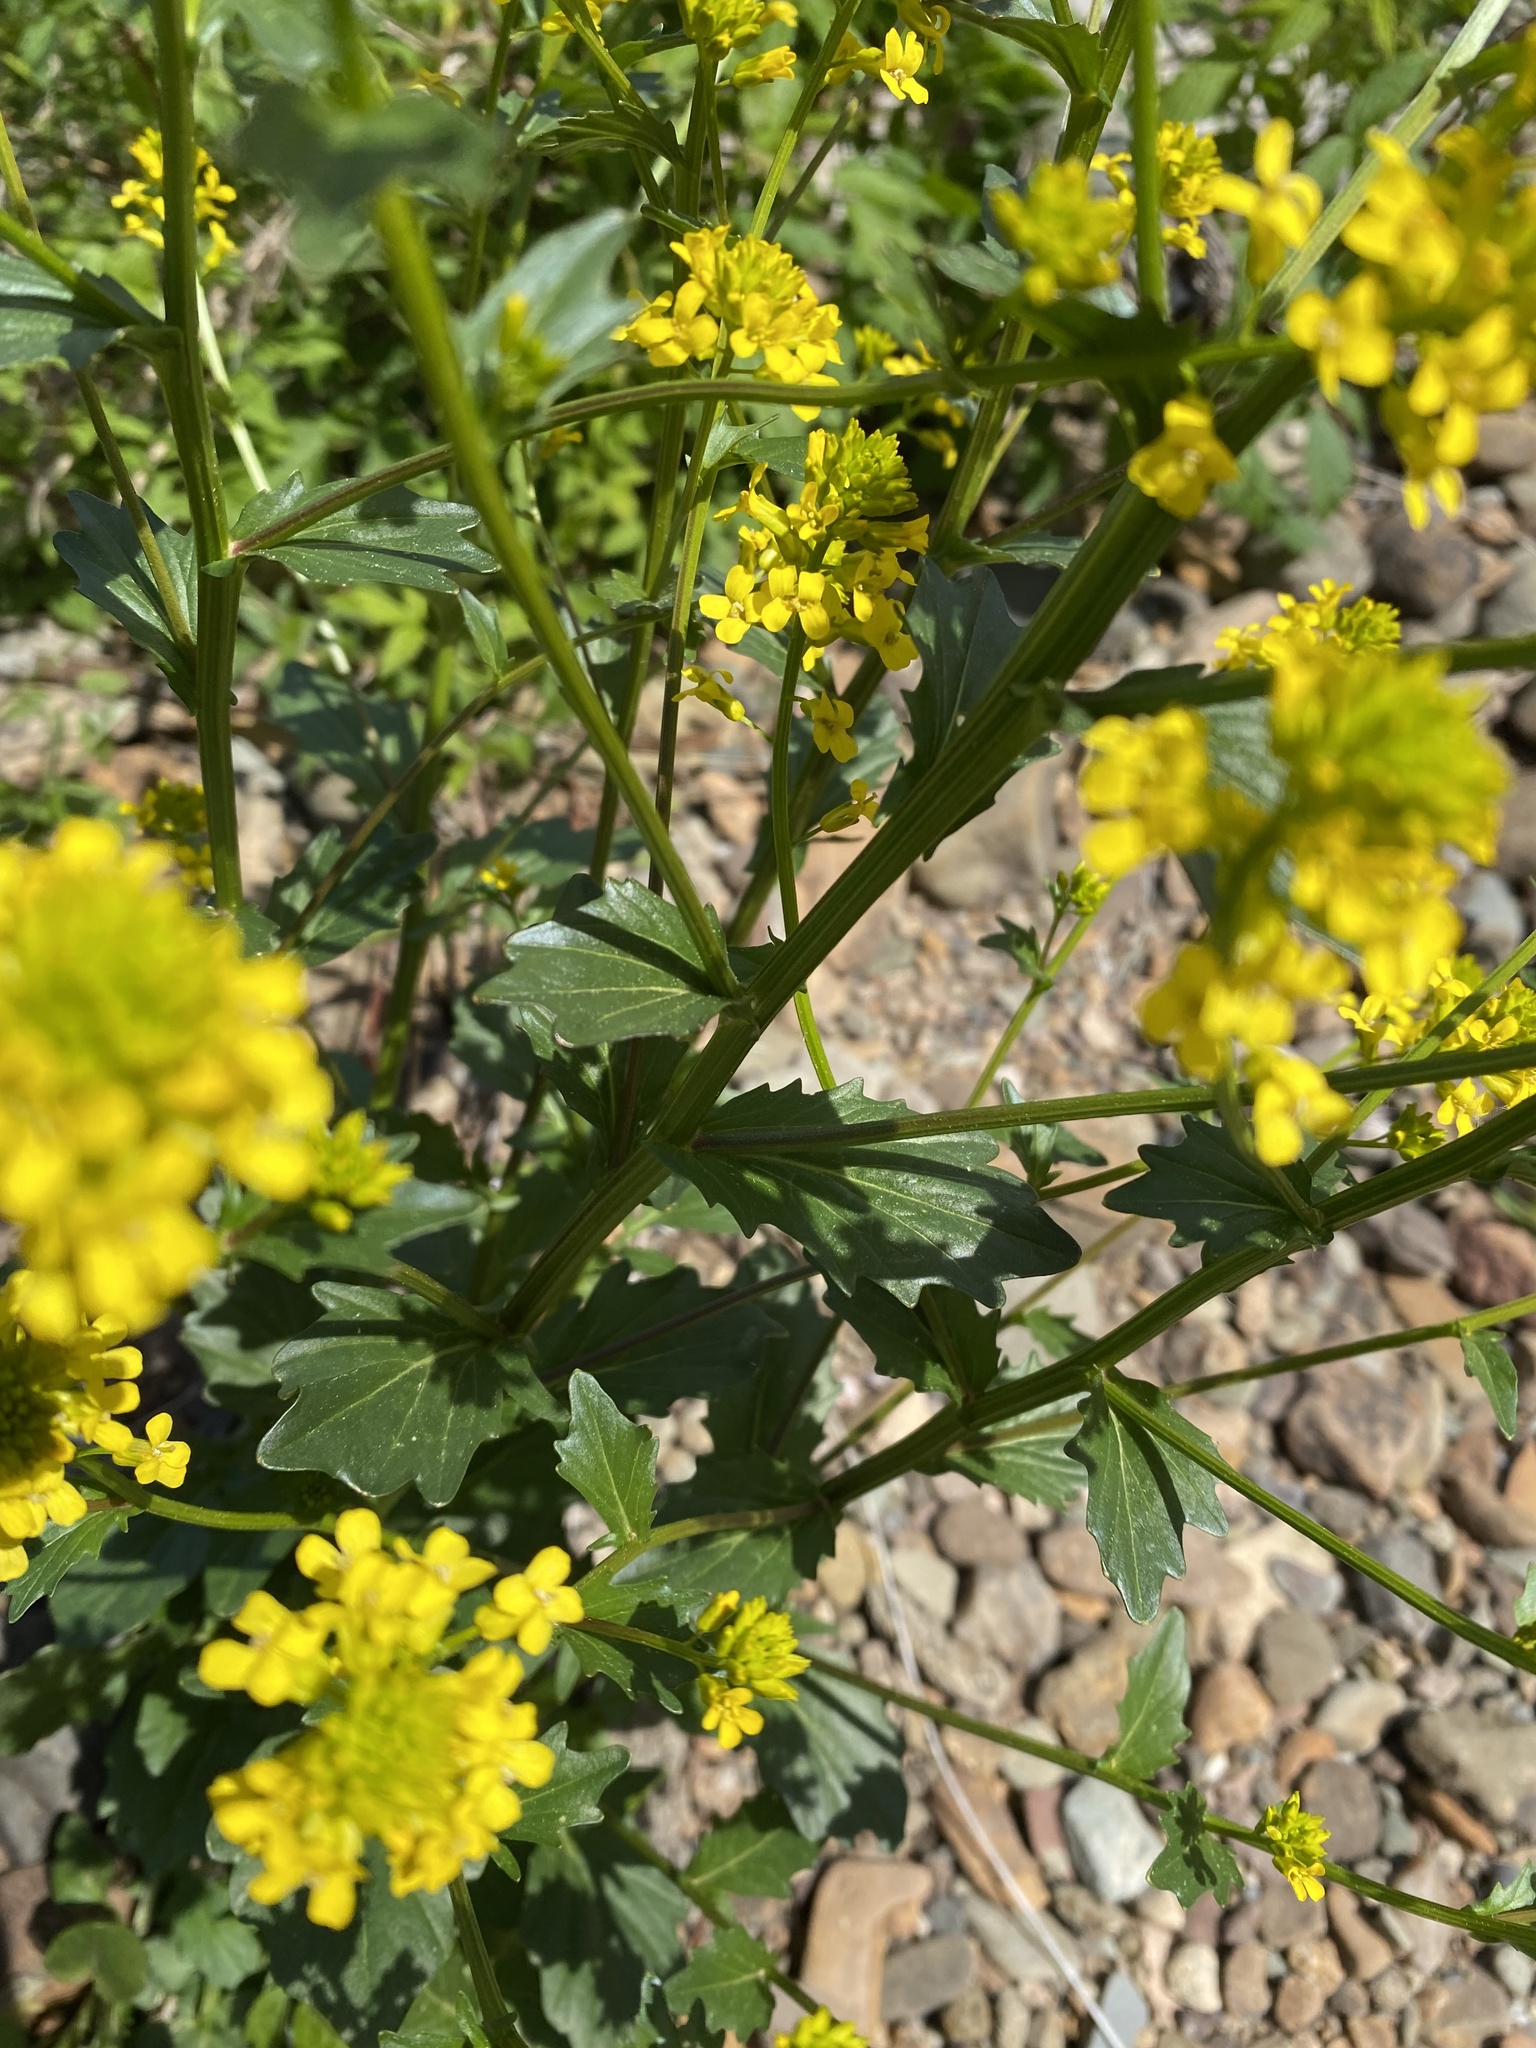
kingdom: Plantae
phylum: Tracheophyta
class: Magnoliopsida
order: Brassicales
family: Brassicaceae
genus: Barbarea
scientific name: Barbarea vulgaris
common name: Cressy-greens
